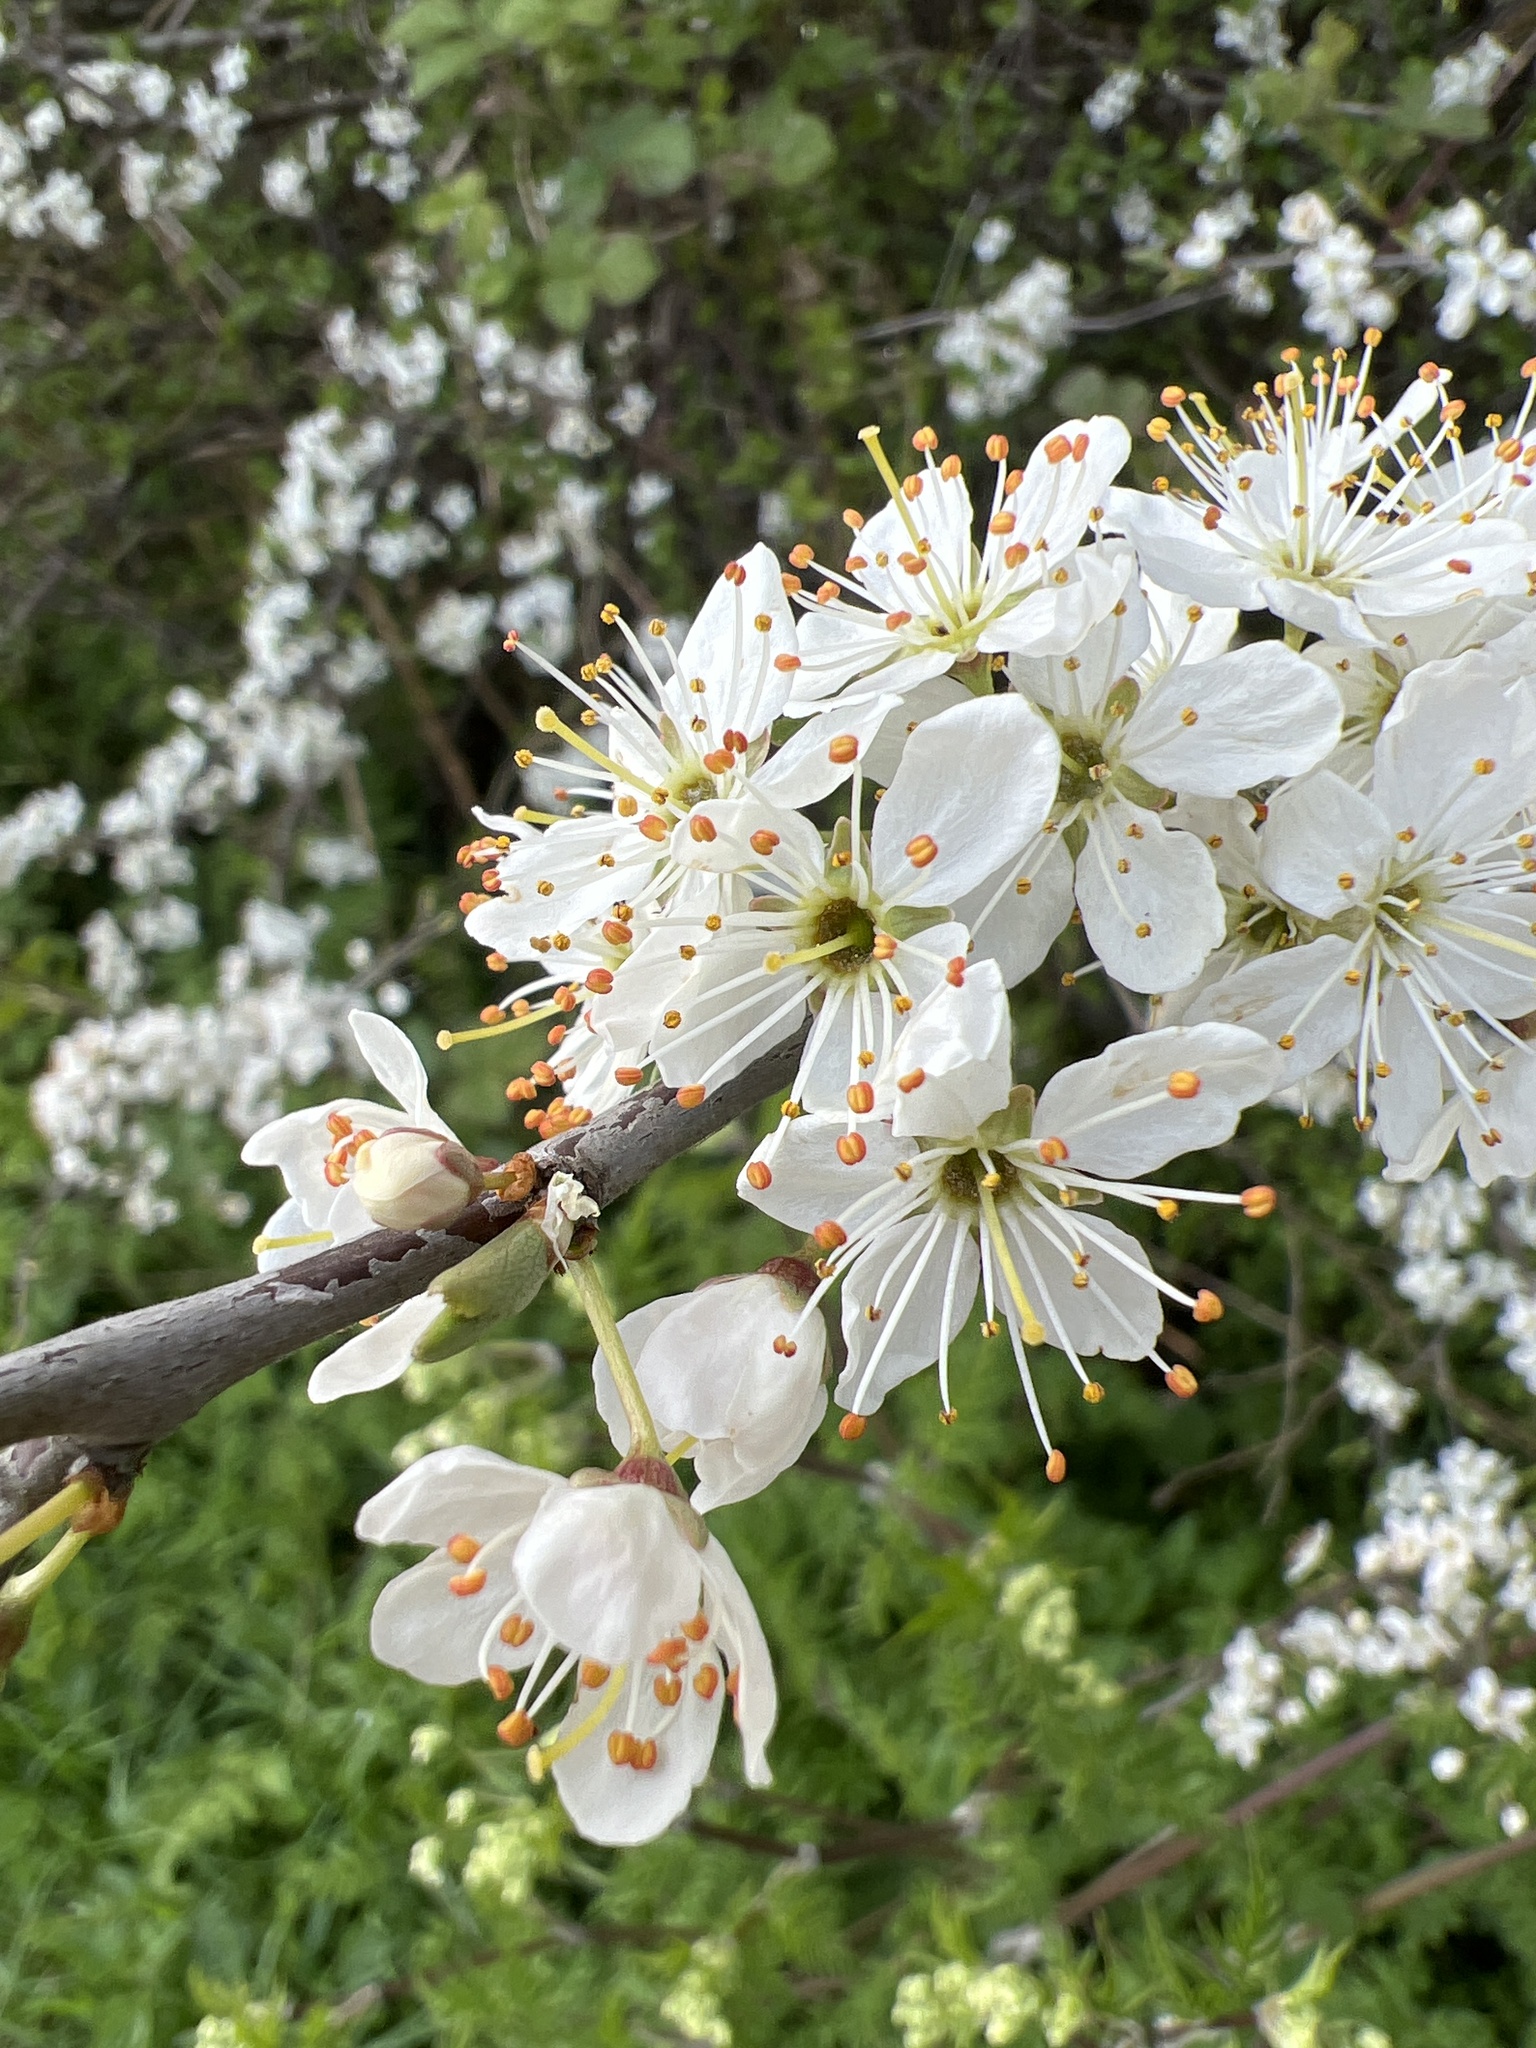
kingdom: Plantae
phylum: Tracheophyta
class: Magnoliopsida
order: Rosales
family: Rosaceae
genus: Prunus
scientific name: Prunus spinosa
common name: Blackthorn
